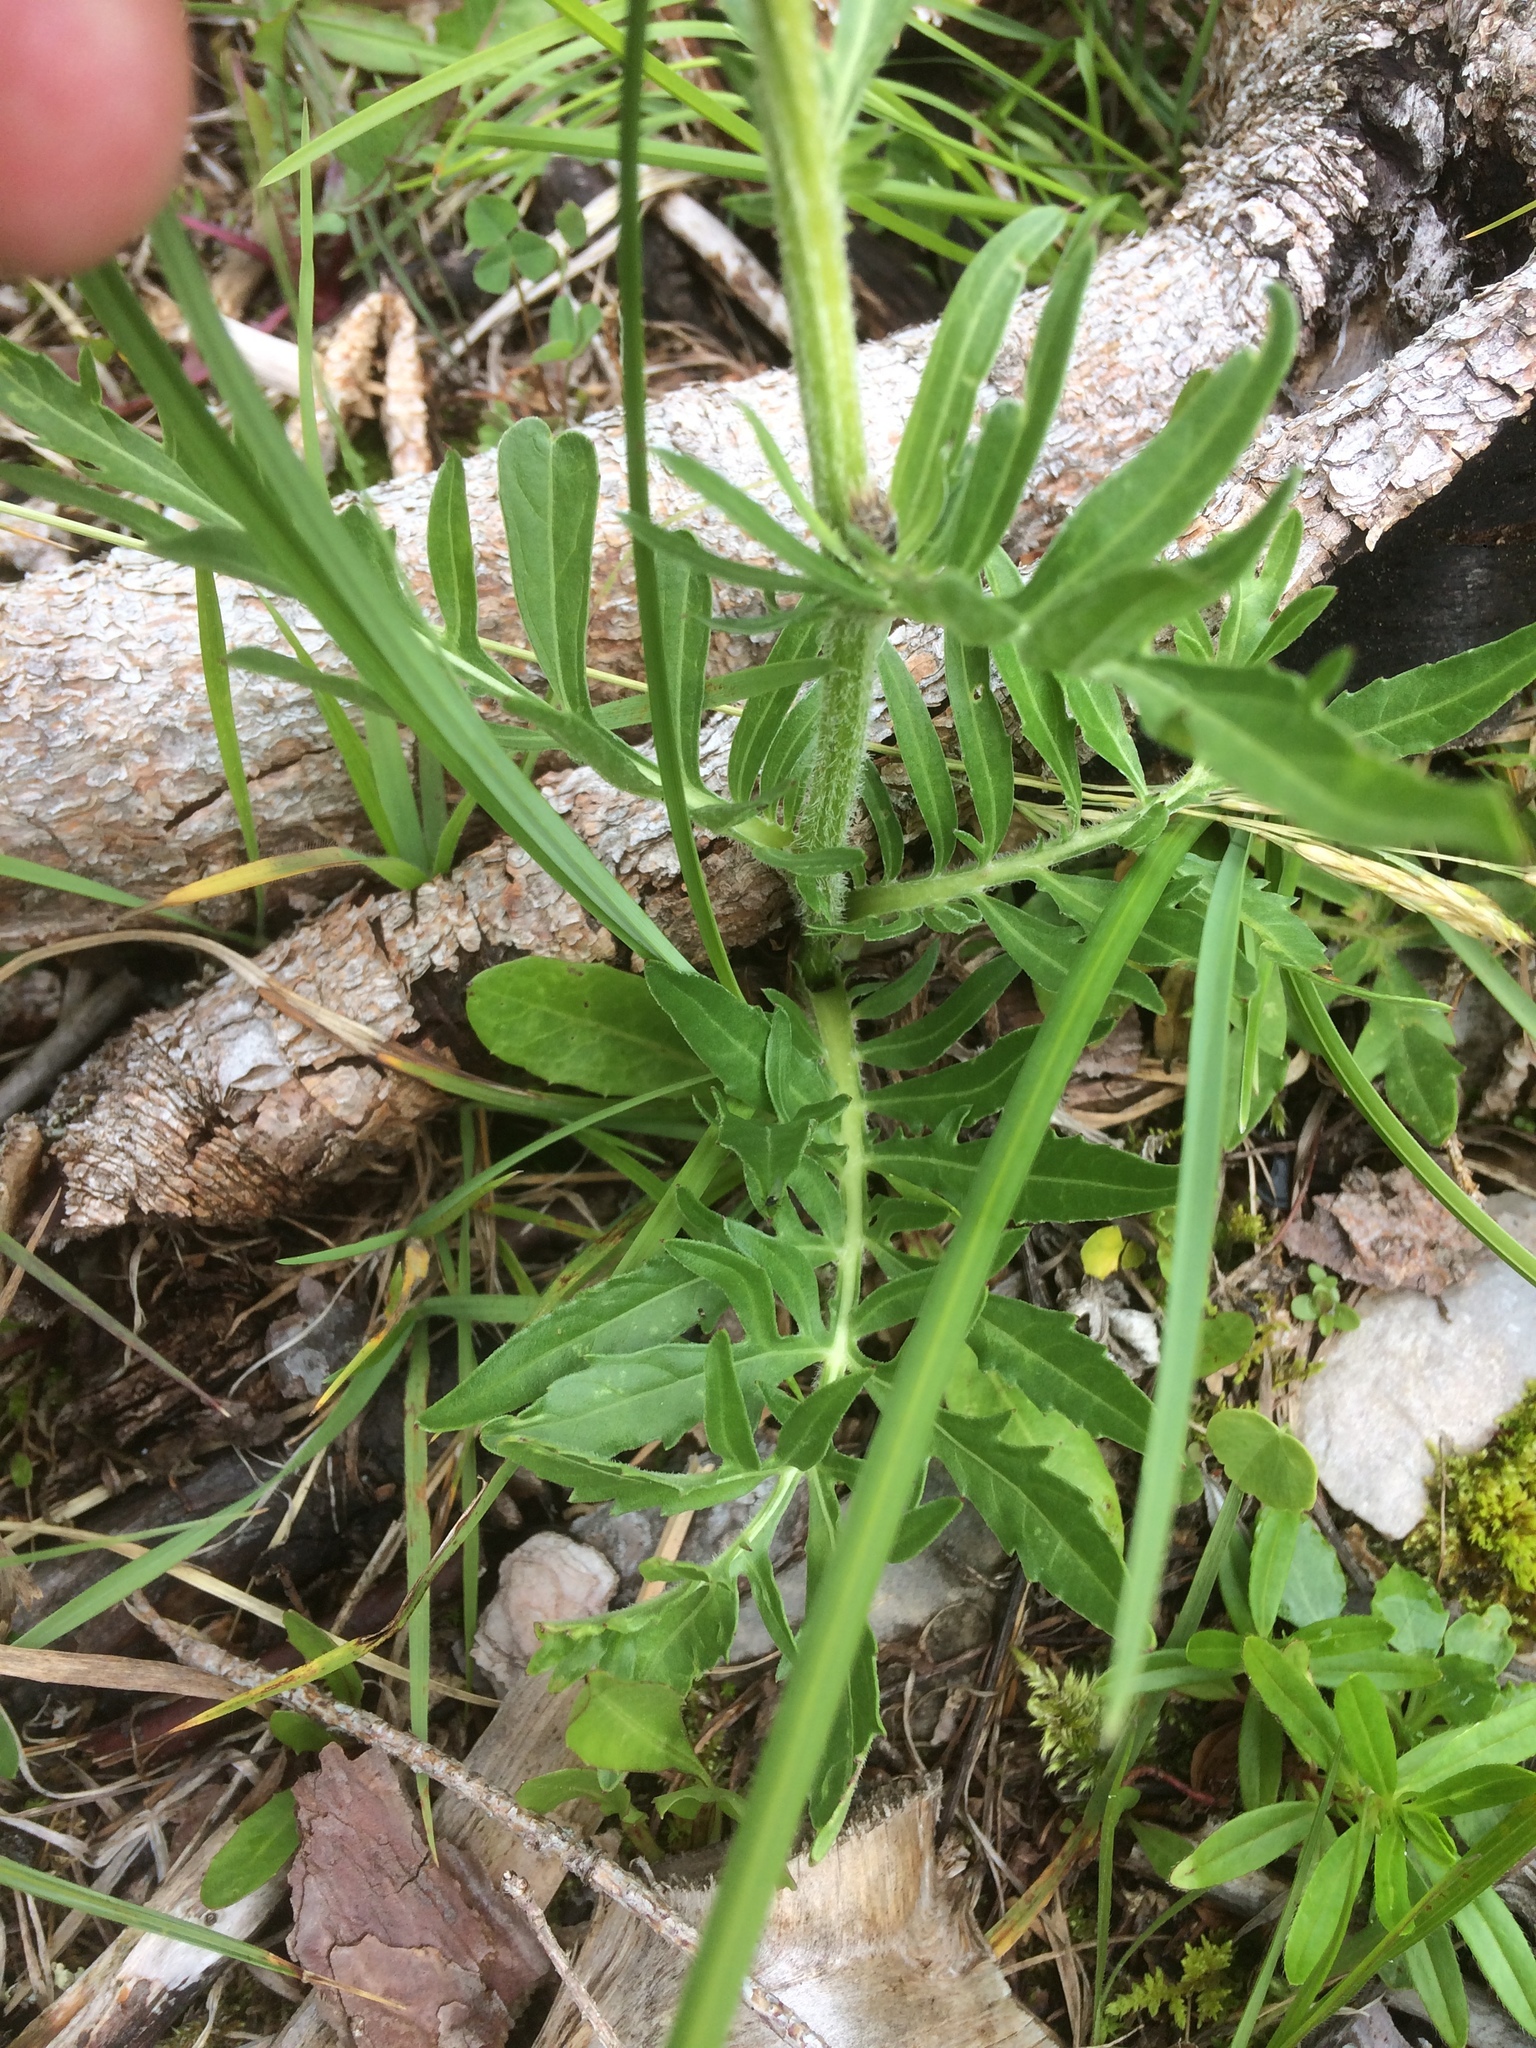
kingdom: Plantae
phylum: Tracheophyta
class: Magnoliopsida
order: Asterales
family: Asteraceae
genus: Centaurea
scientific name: Centaurea scabiosa
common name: Greater knapweed
